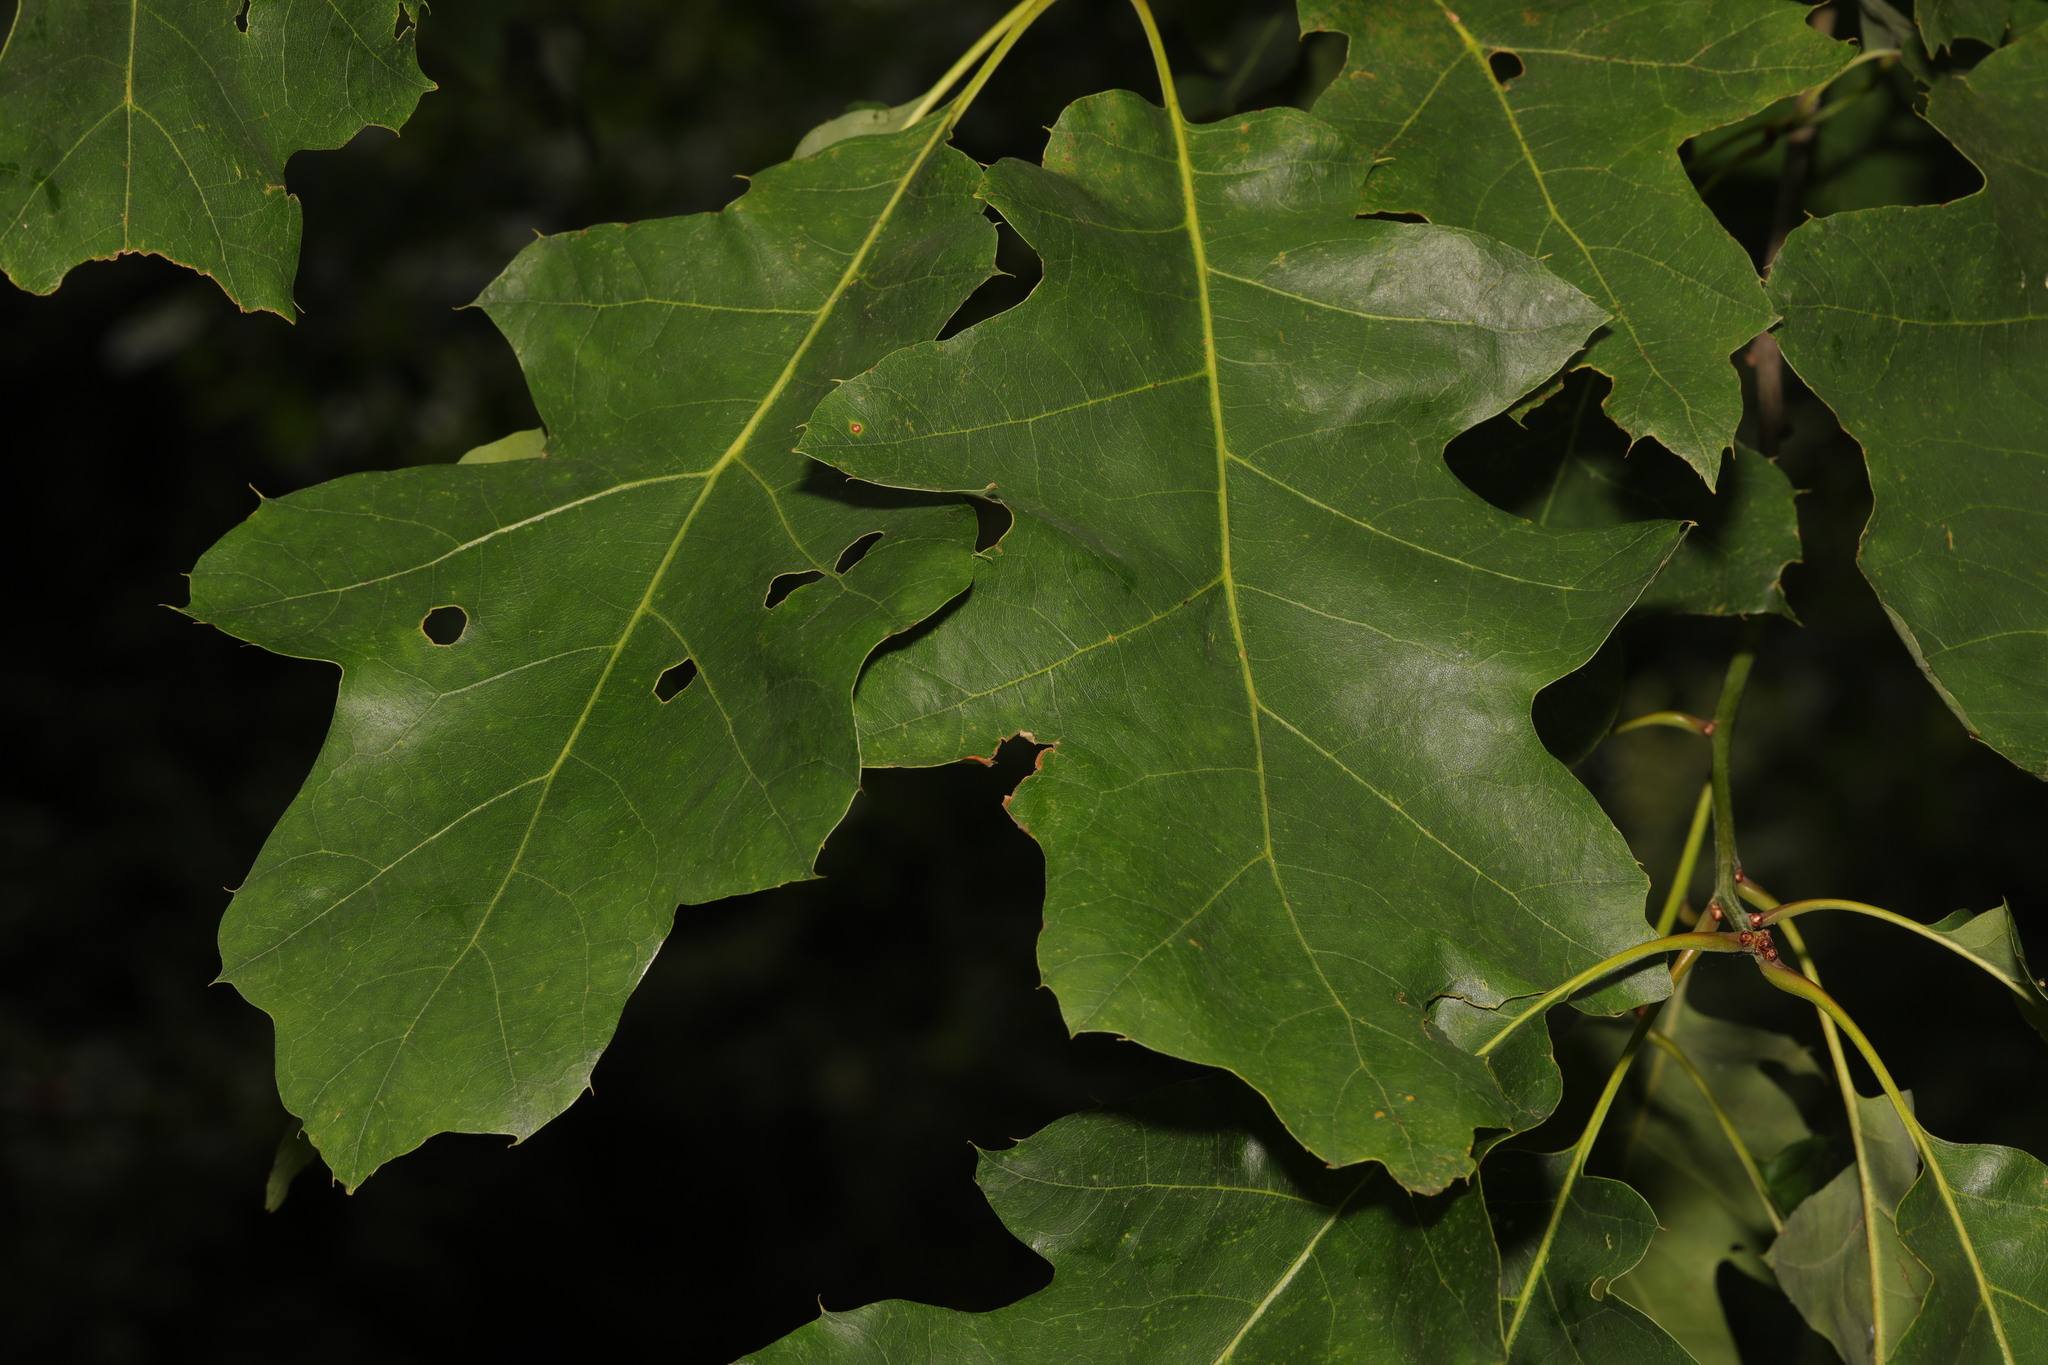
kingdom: Plantae
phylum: Tracheophyta
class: Magnoliopsida
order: Fagales
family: Fagaceae
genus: Quercus
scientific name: Quercus rubra
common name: Red oak
